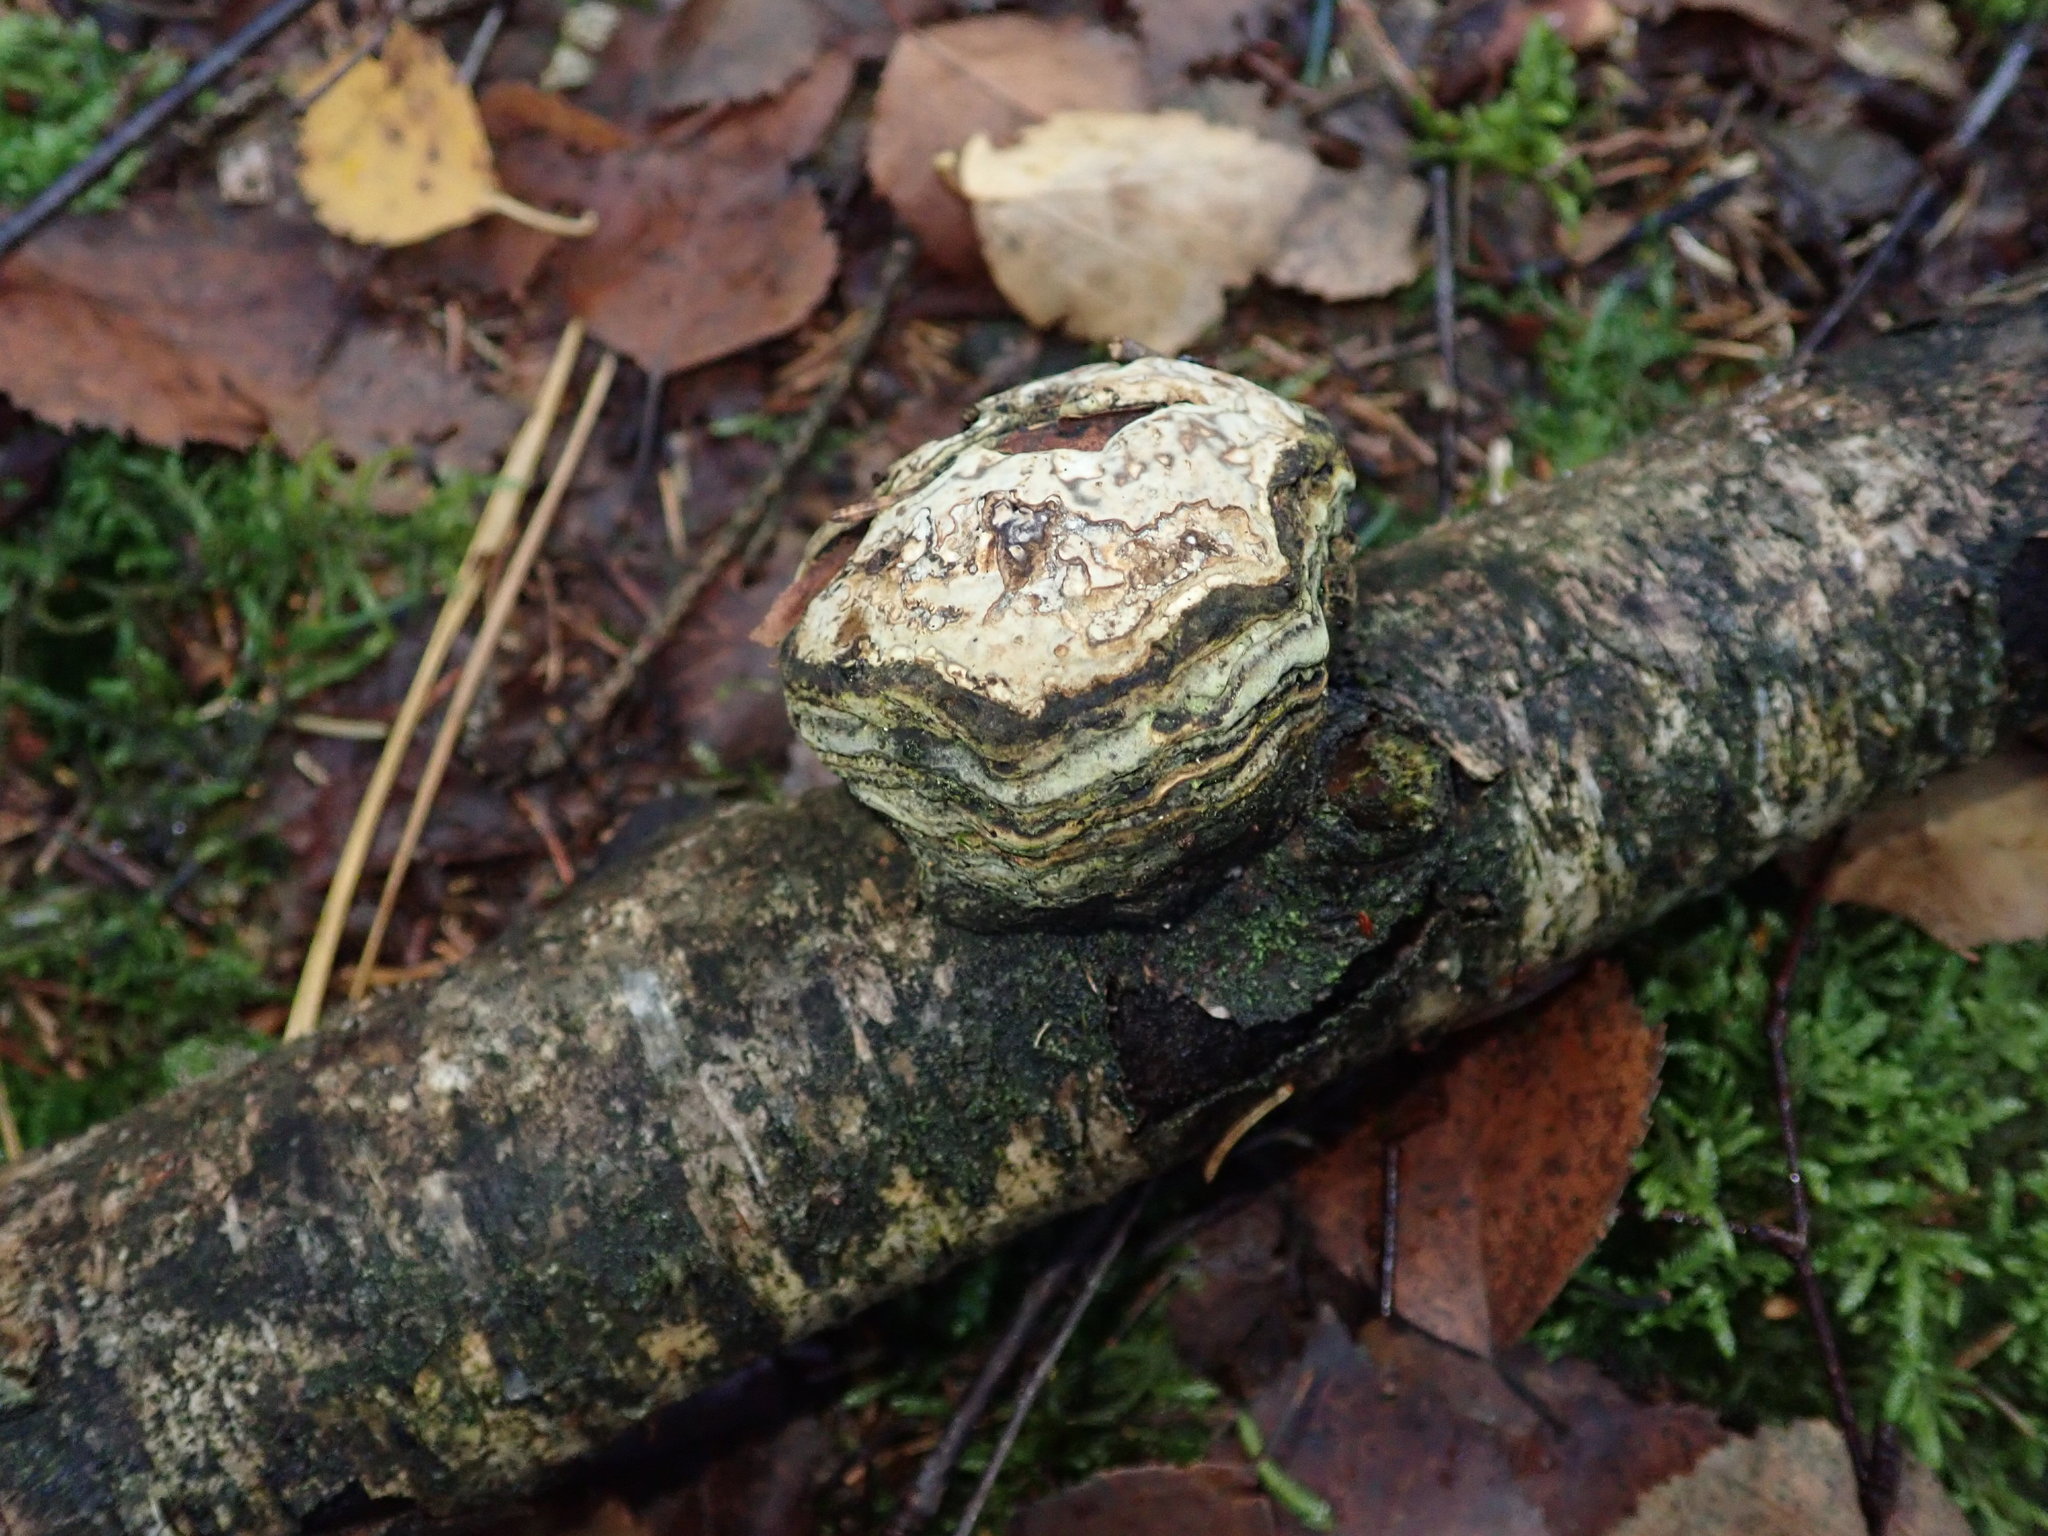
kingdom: Fungi
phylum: Basidiomycota
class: Agaricomycetes
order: Polyporales
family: Fomitopsidaceae
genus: Fomitopsis
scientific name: Fomitopsis betulina
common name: Birch polypore
